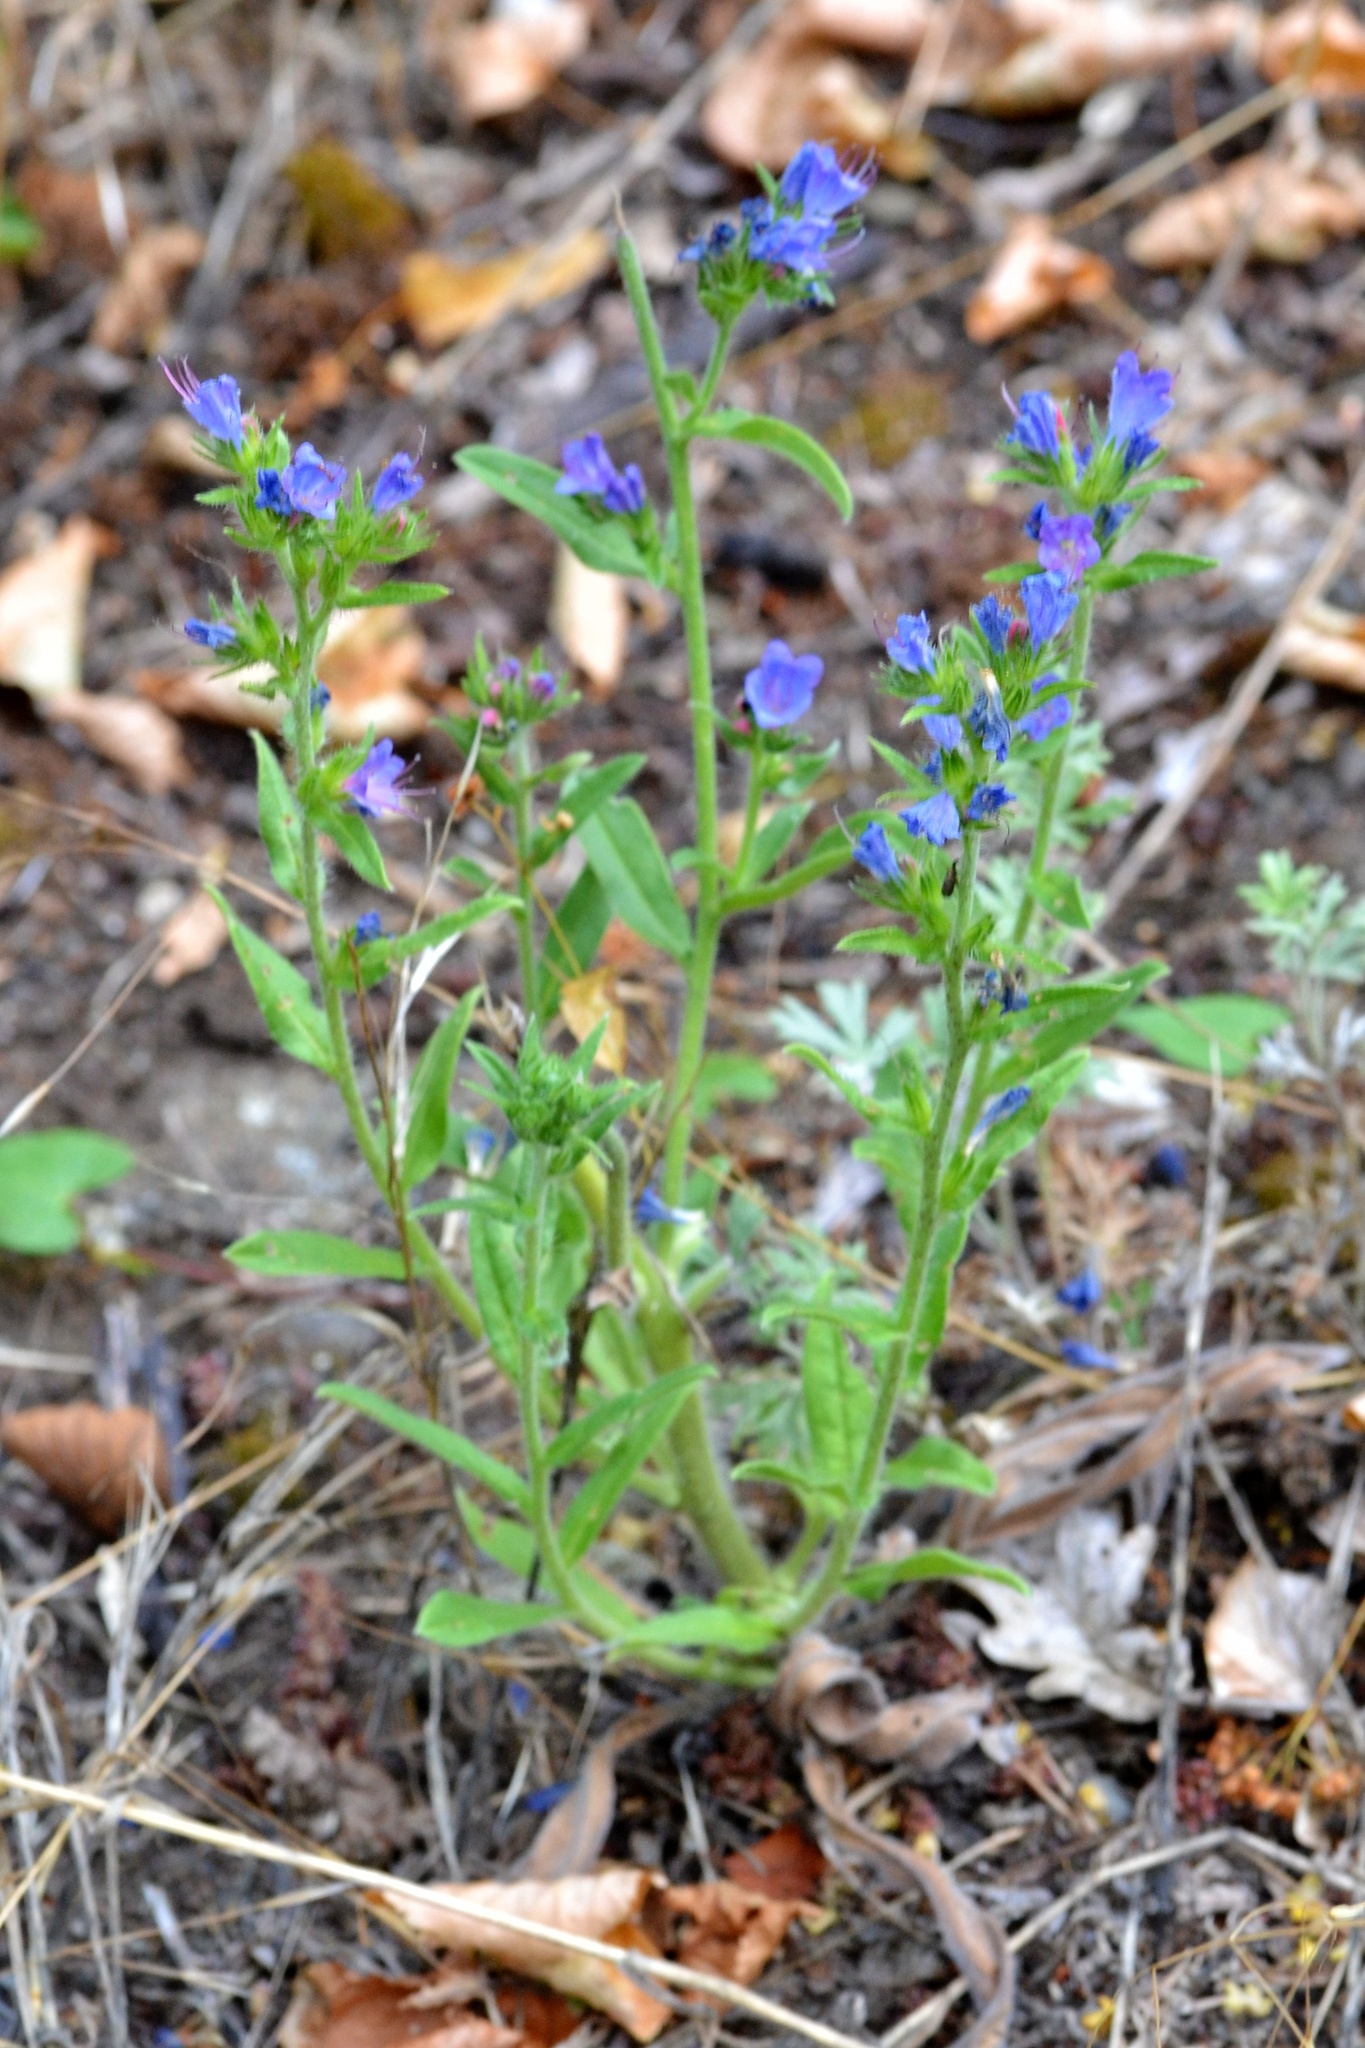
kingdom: Plantae
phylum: Tracheophyta
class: Magnoliopsida
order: Boraginales
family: Boraginaceae
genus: Echium
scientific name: Echium vulgare
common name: Common viper's bugloss
